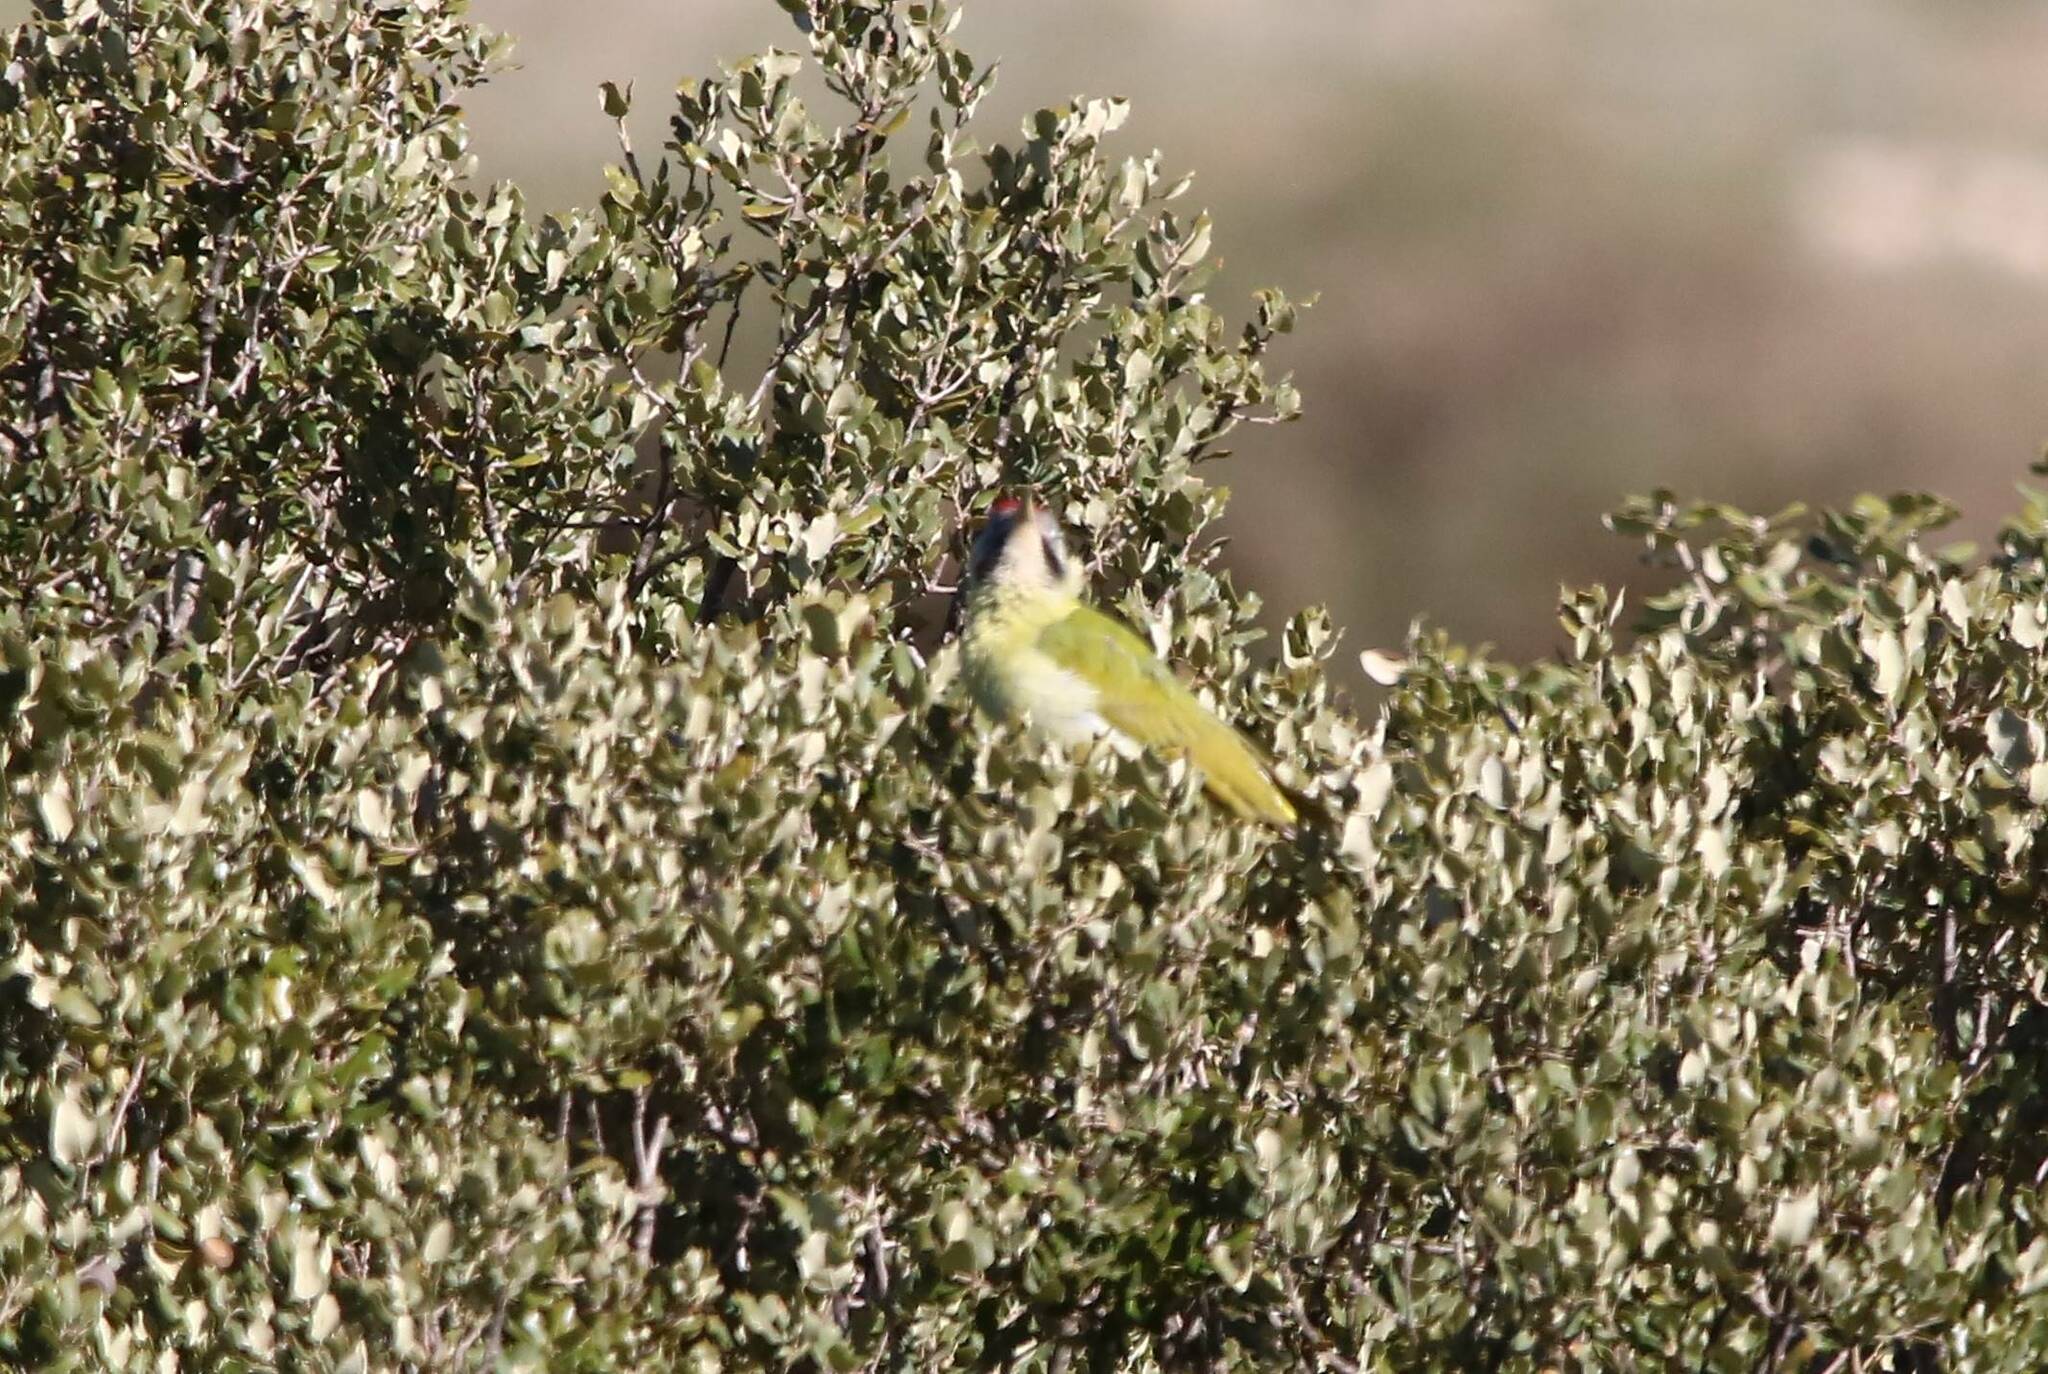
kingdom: Animalia
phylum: Chordata
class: Aves
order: Piciformes
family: Picidae
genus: Picus
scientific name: Picus vaillantii
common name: Levaillant's woodpecker
